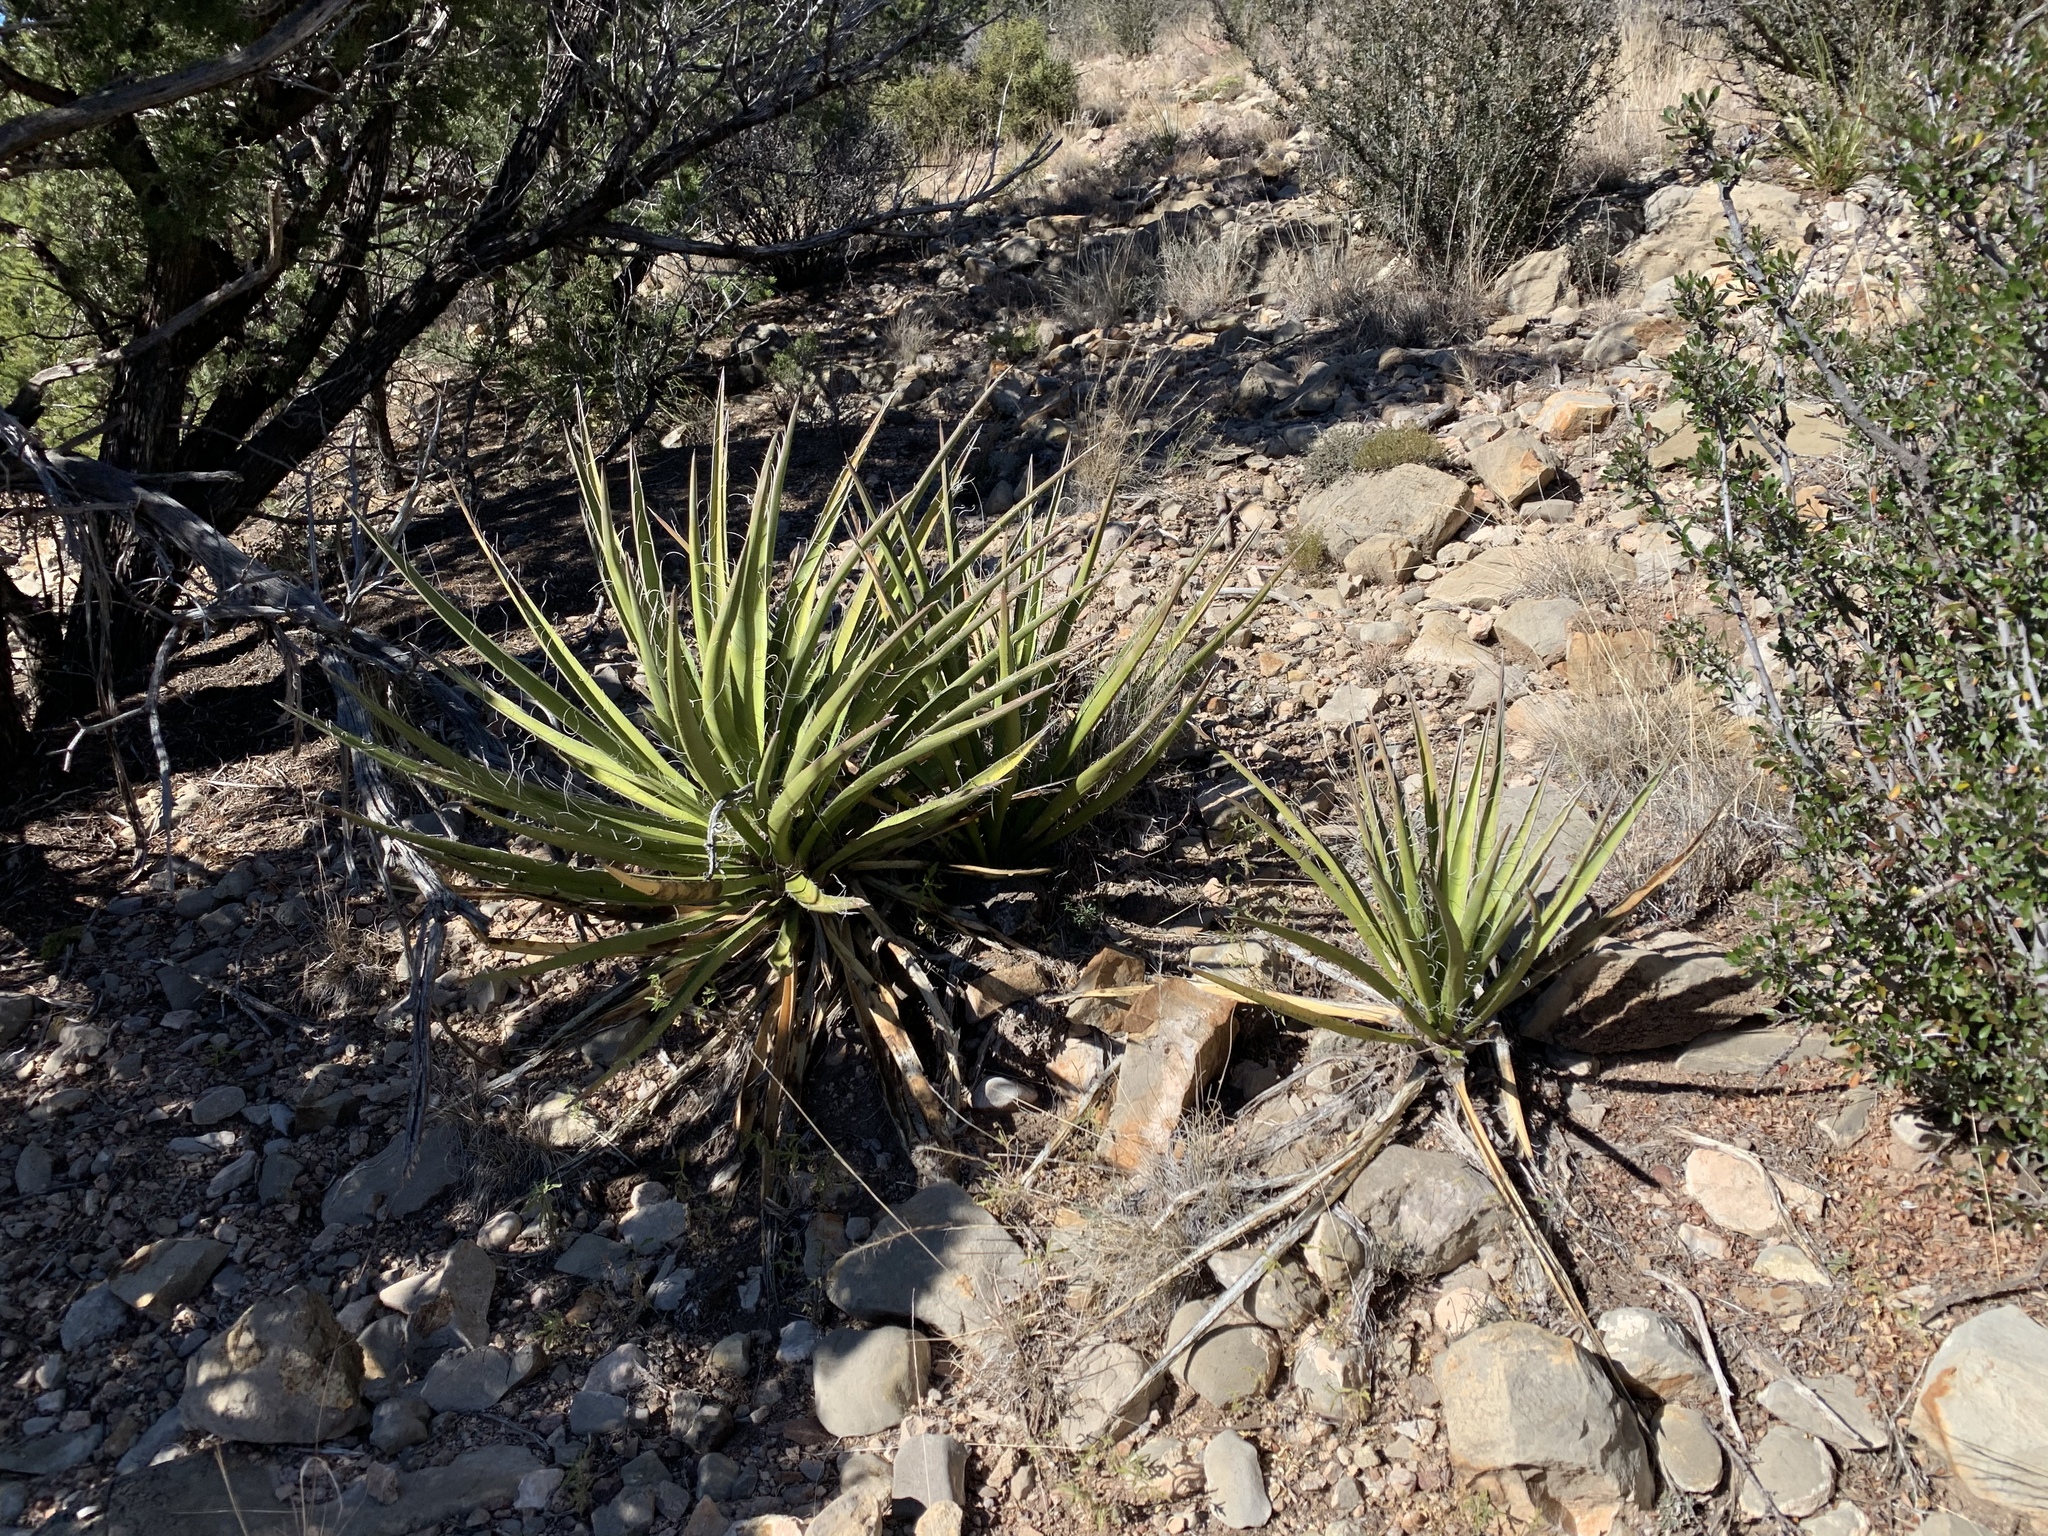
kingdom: Plantae
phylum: Tracheophyta
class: Liliopsida
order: Asparagales
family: Asparagaceae
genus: Yucca
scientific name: Yucca baccata
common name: Banana yucca
